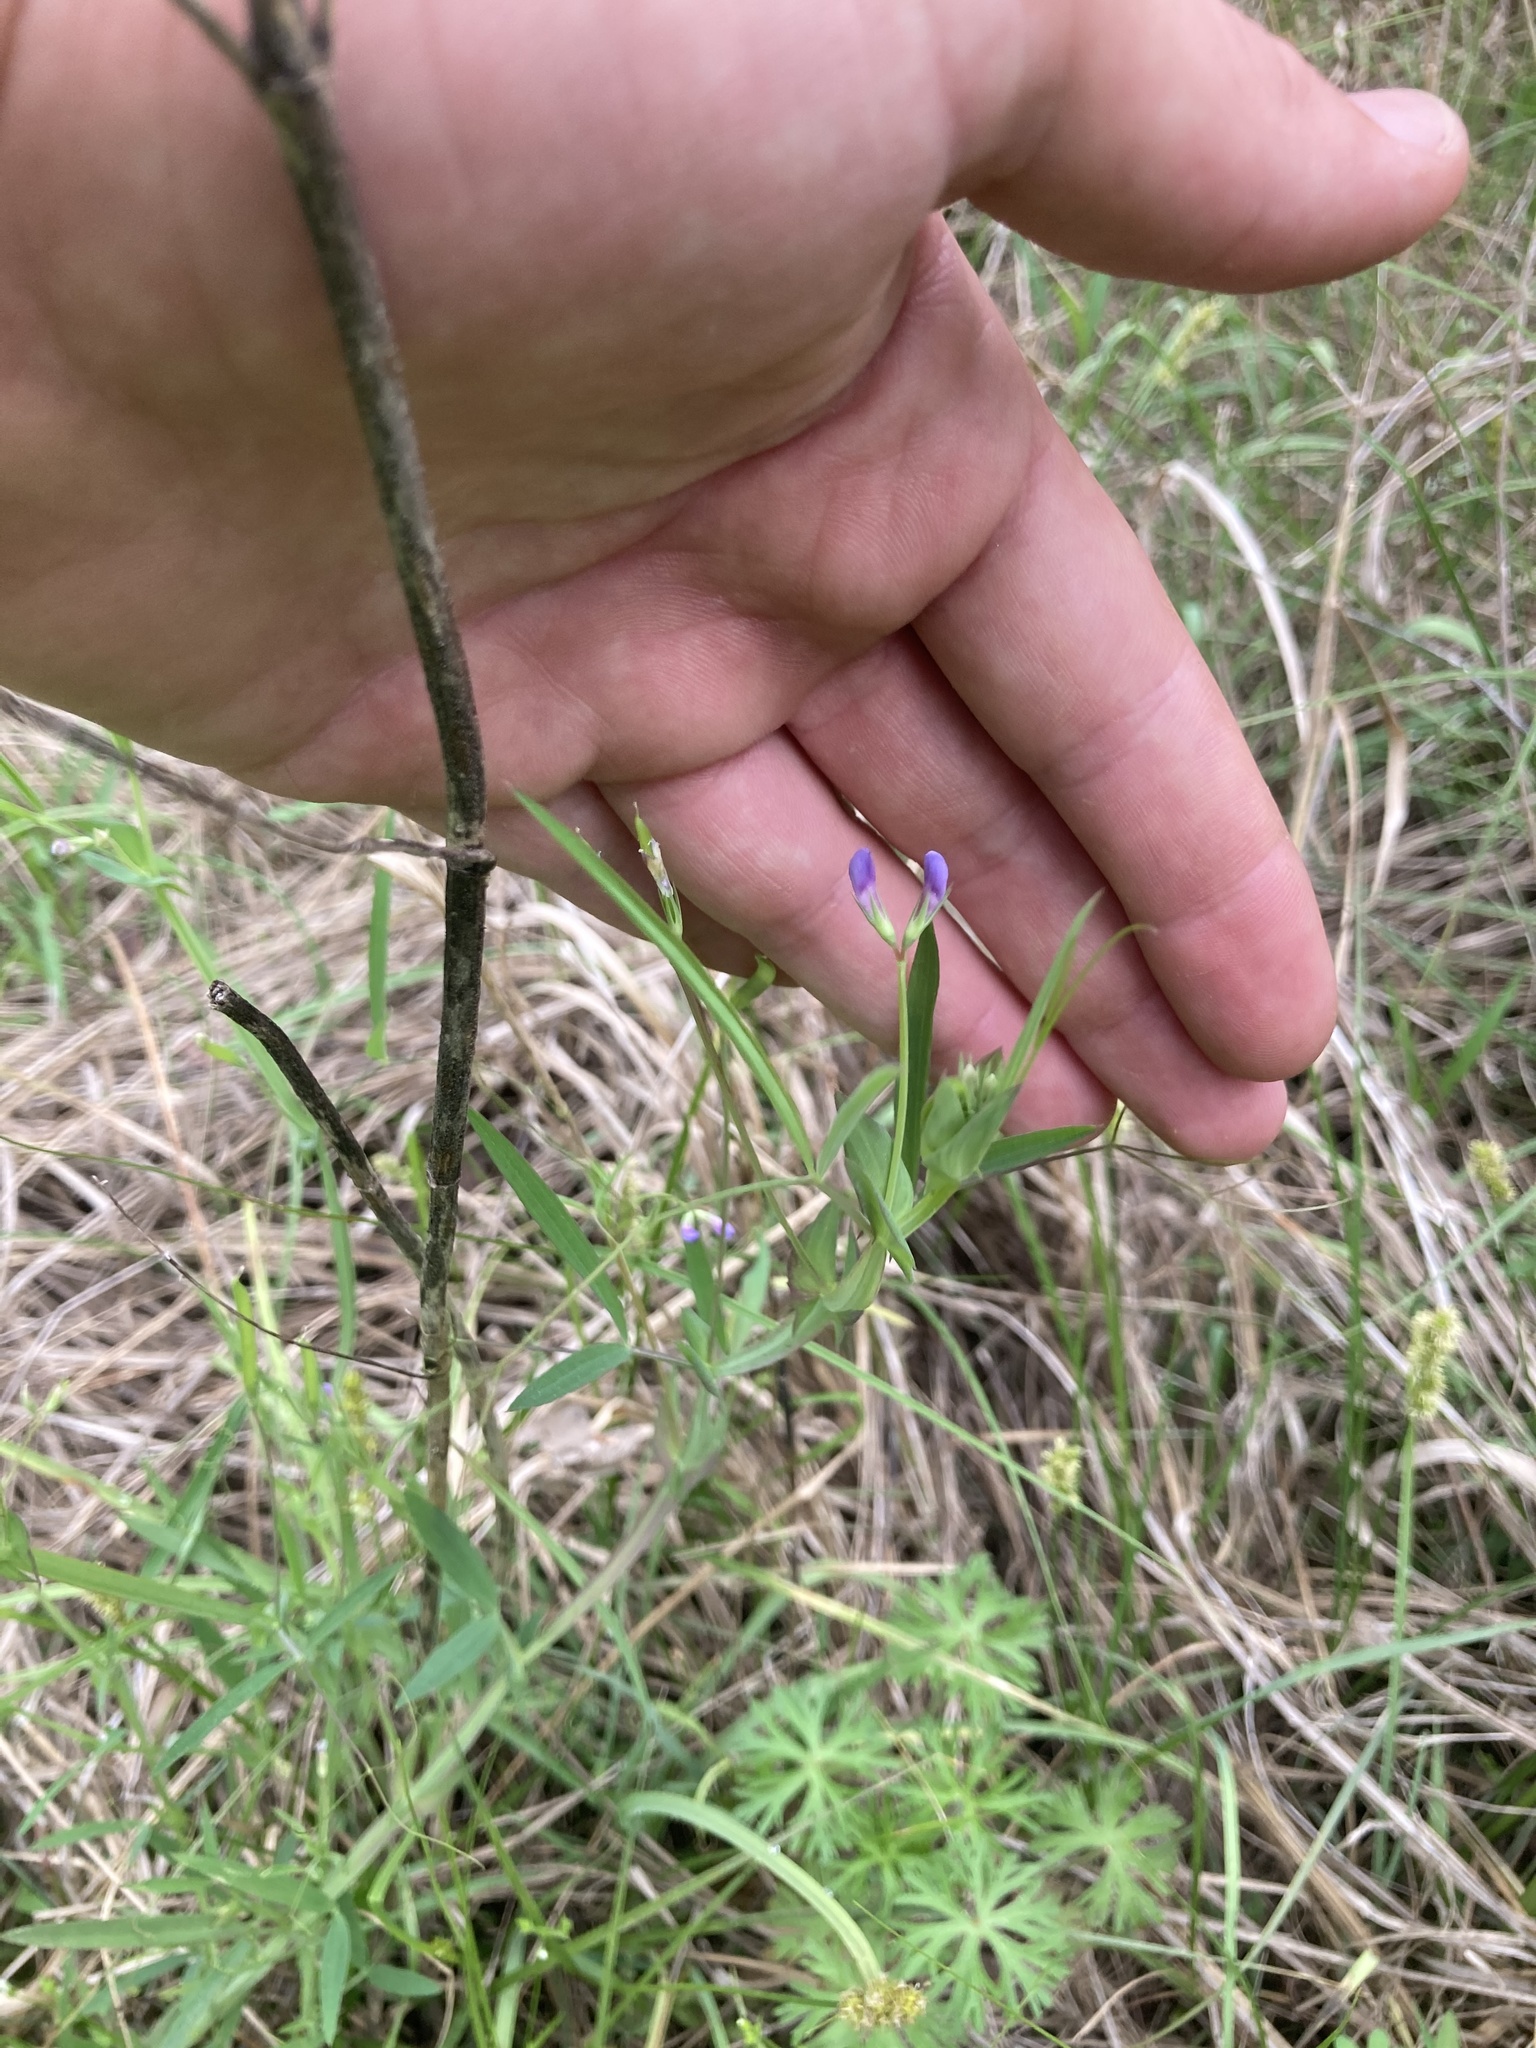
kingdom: Plantae
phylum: Tracheophyta
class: Magnoliopsida
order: Fabales
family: Fabaceae
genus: Lathyrus
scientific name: Lathyrus pusillus
